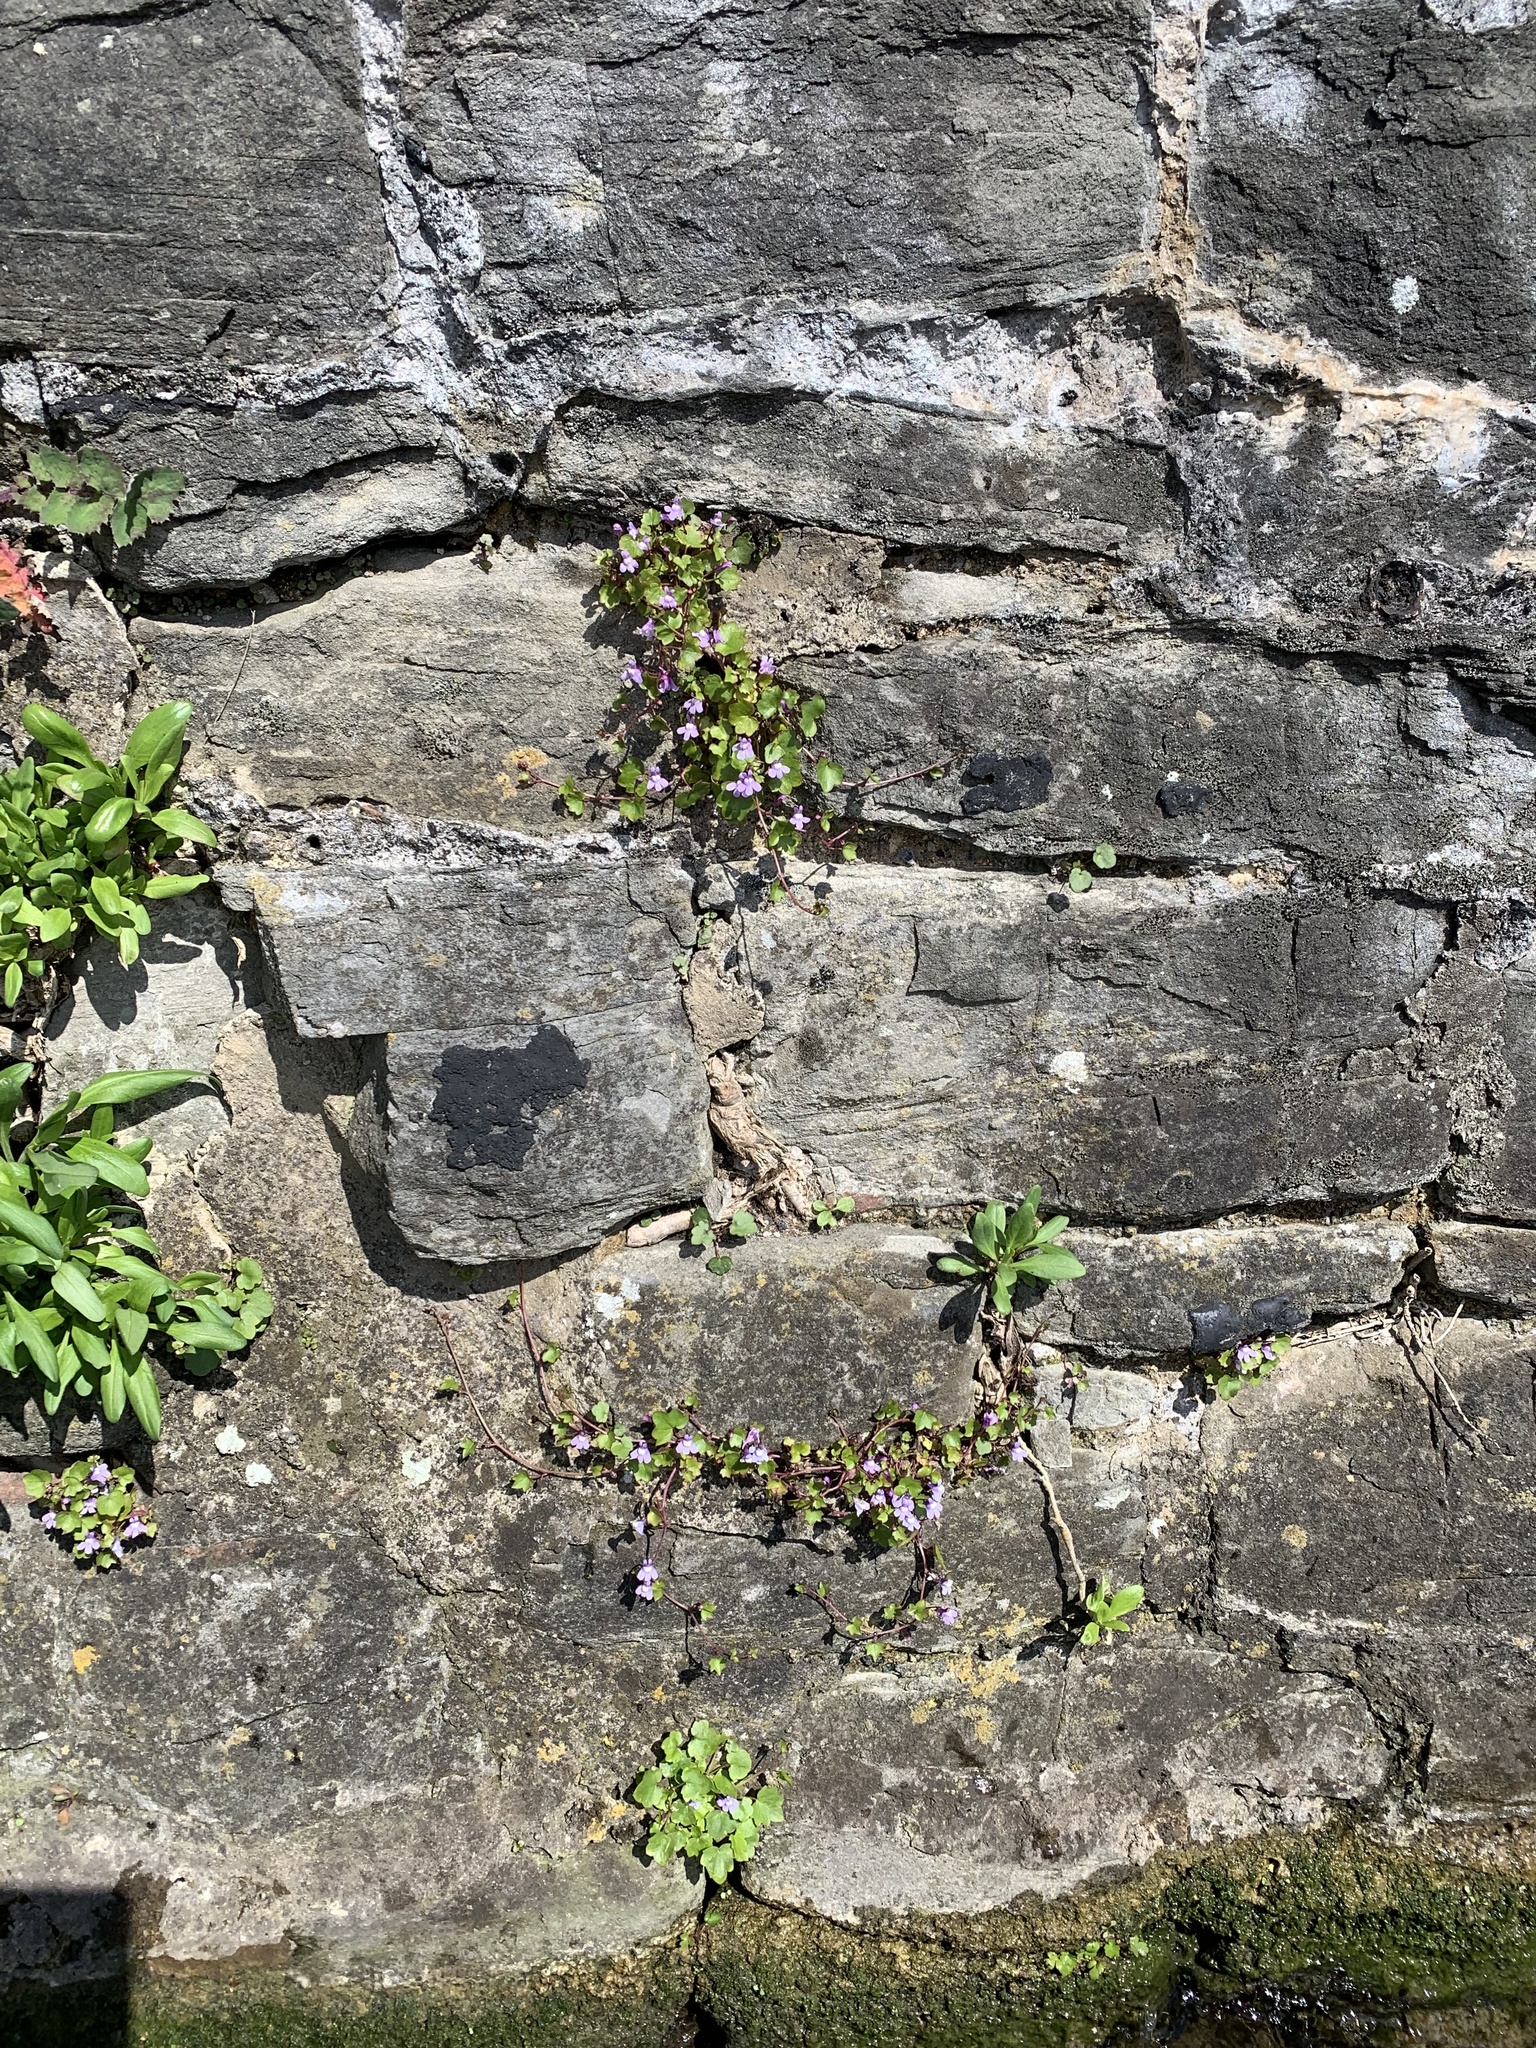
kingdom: Plantae
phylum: Tracheophyta
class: Magnoliopsida
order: Lamiales
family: Plantaginaceae
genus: Cymbalaria
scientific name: Cymbalaria muralis
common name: Ivy-leaved toadflax
